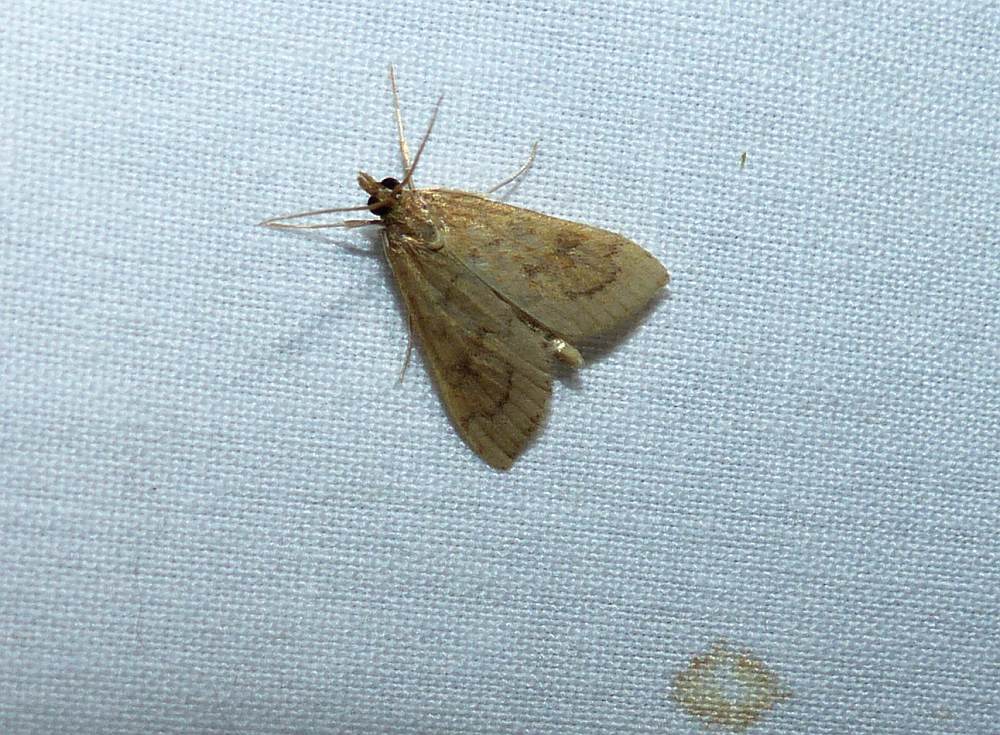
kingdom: Animalia
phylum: Arthropoda
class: Insecta
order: Lepidoptera
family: Crambidae
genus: Udea
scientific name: Udea rubigalis
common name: Celery leaftier moth
